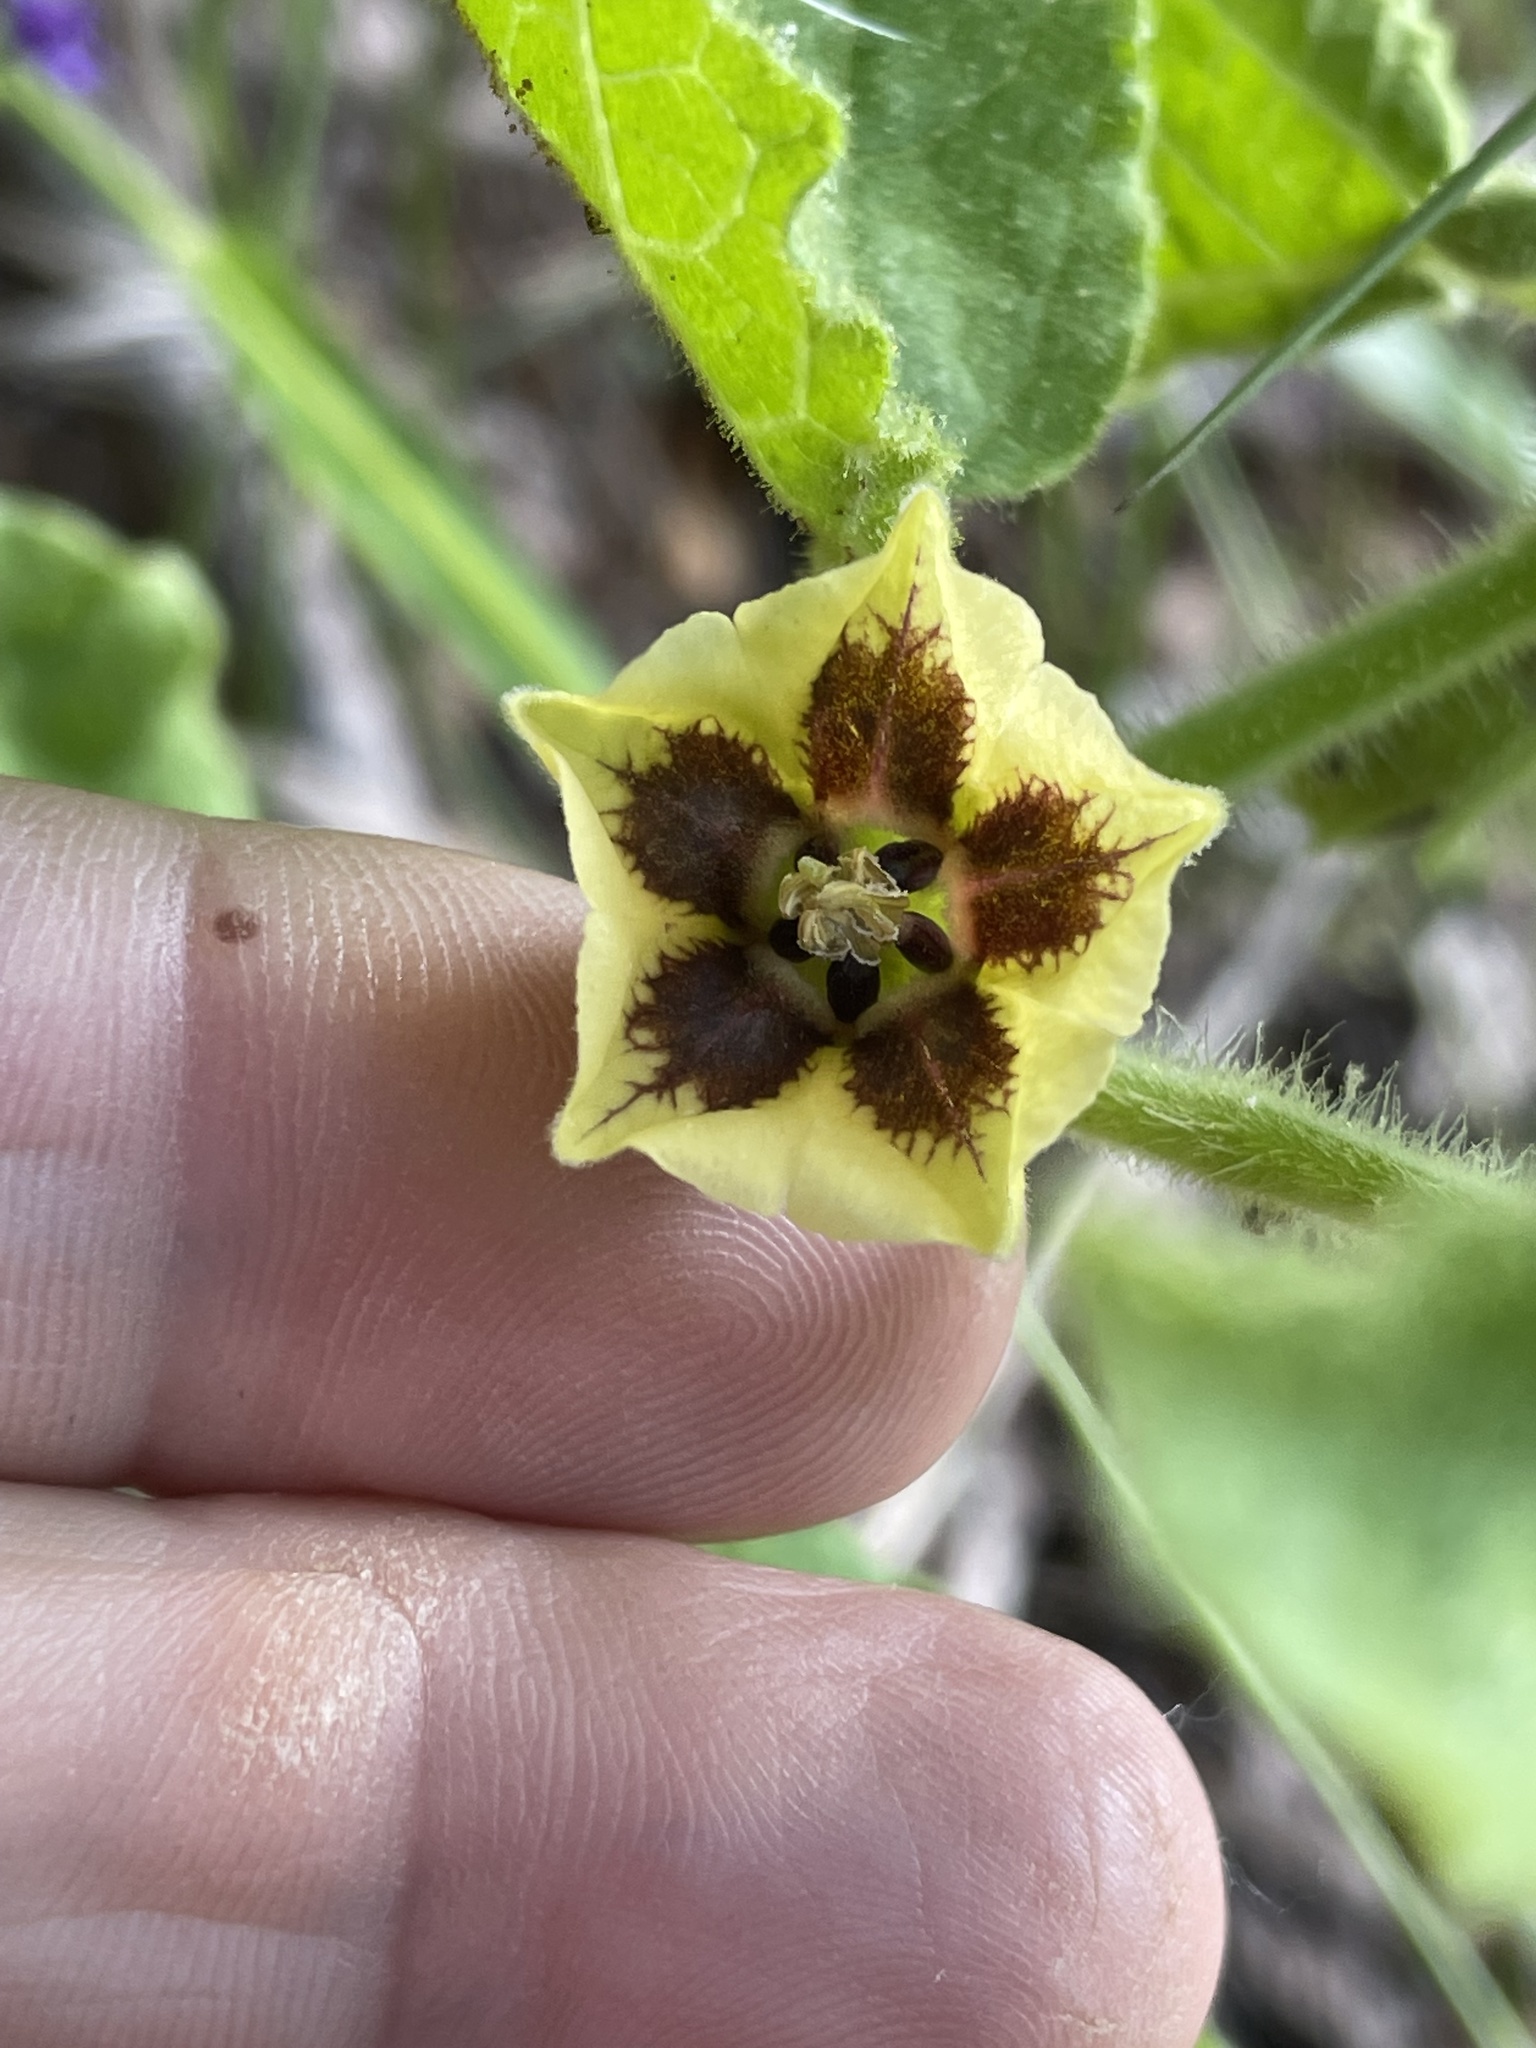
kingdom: Plantae
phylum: Tracheophyta
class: Magnoliopsida
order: Solanales
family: Solanaceae
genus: Physalis
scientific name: Physalis heterophylla
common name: Clammy ground-cherry
